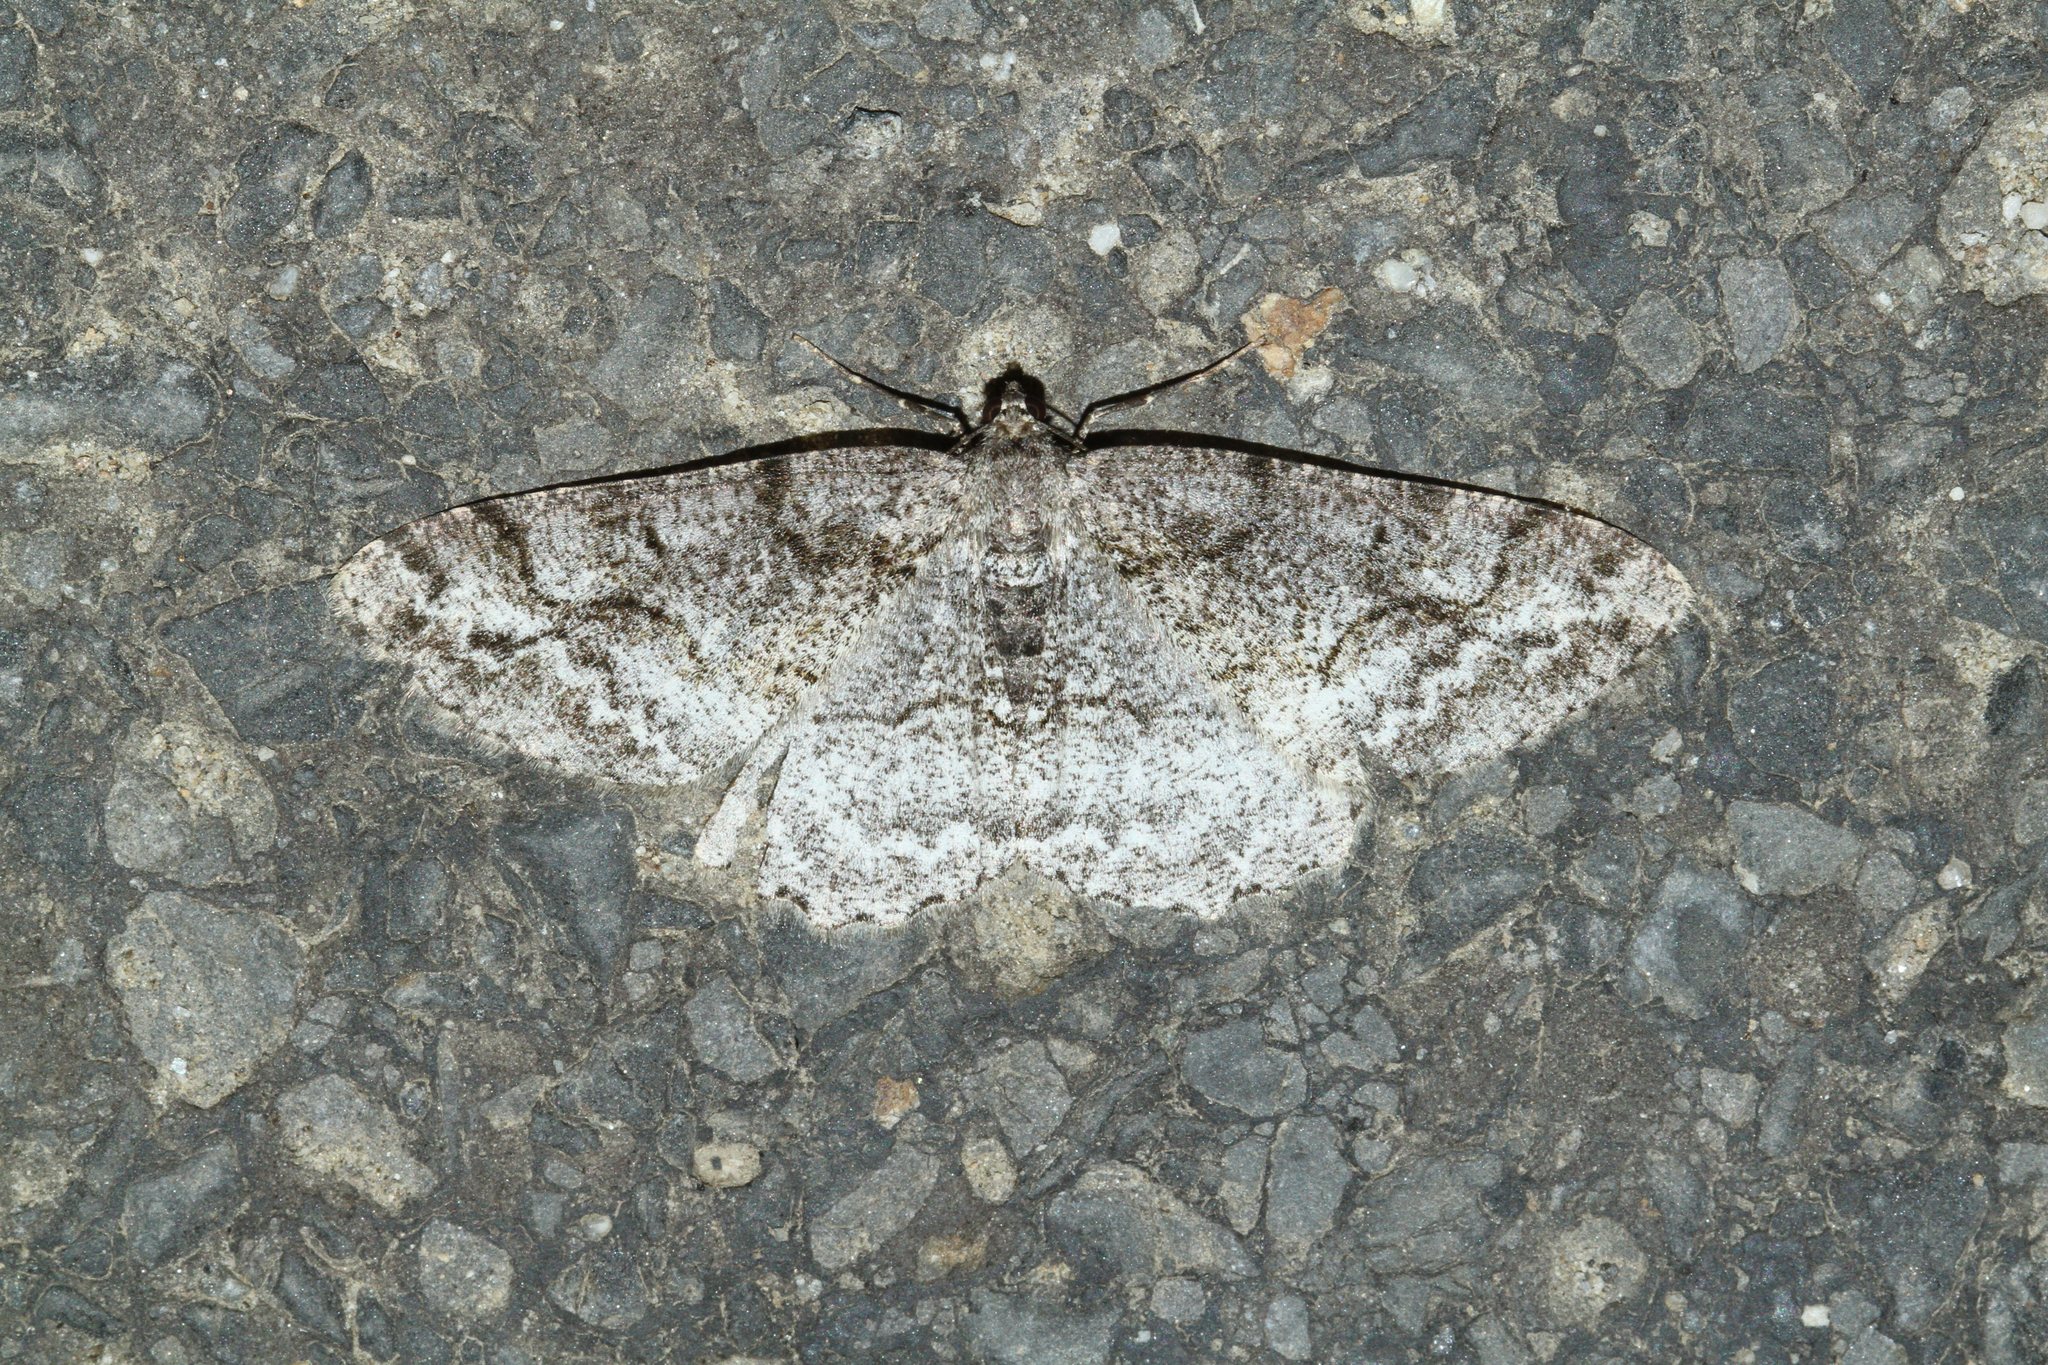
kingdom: Animalia
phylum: Arthropoda
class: Insecta
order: Lepidoptera
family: Geometridae
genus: Alcis
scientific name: Alcis repandata
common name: Mottled beauty
